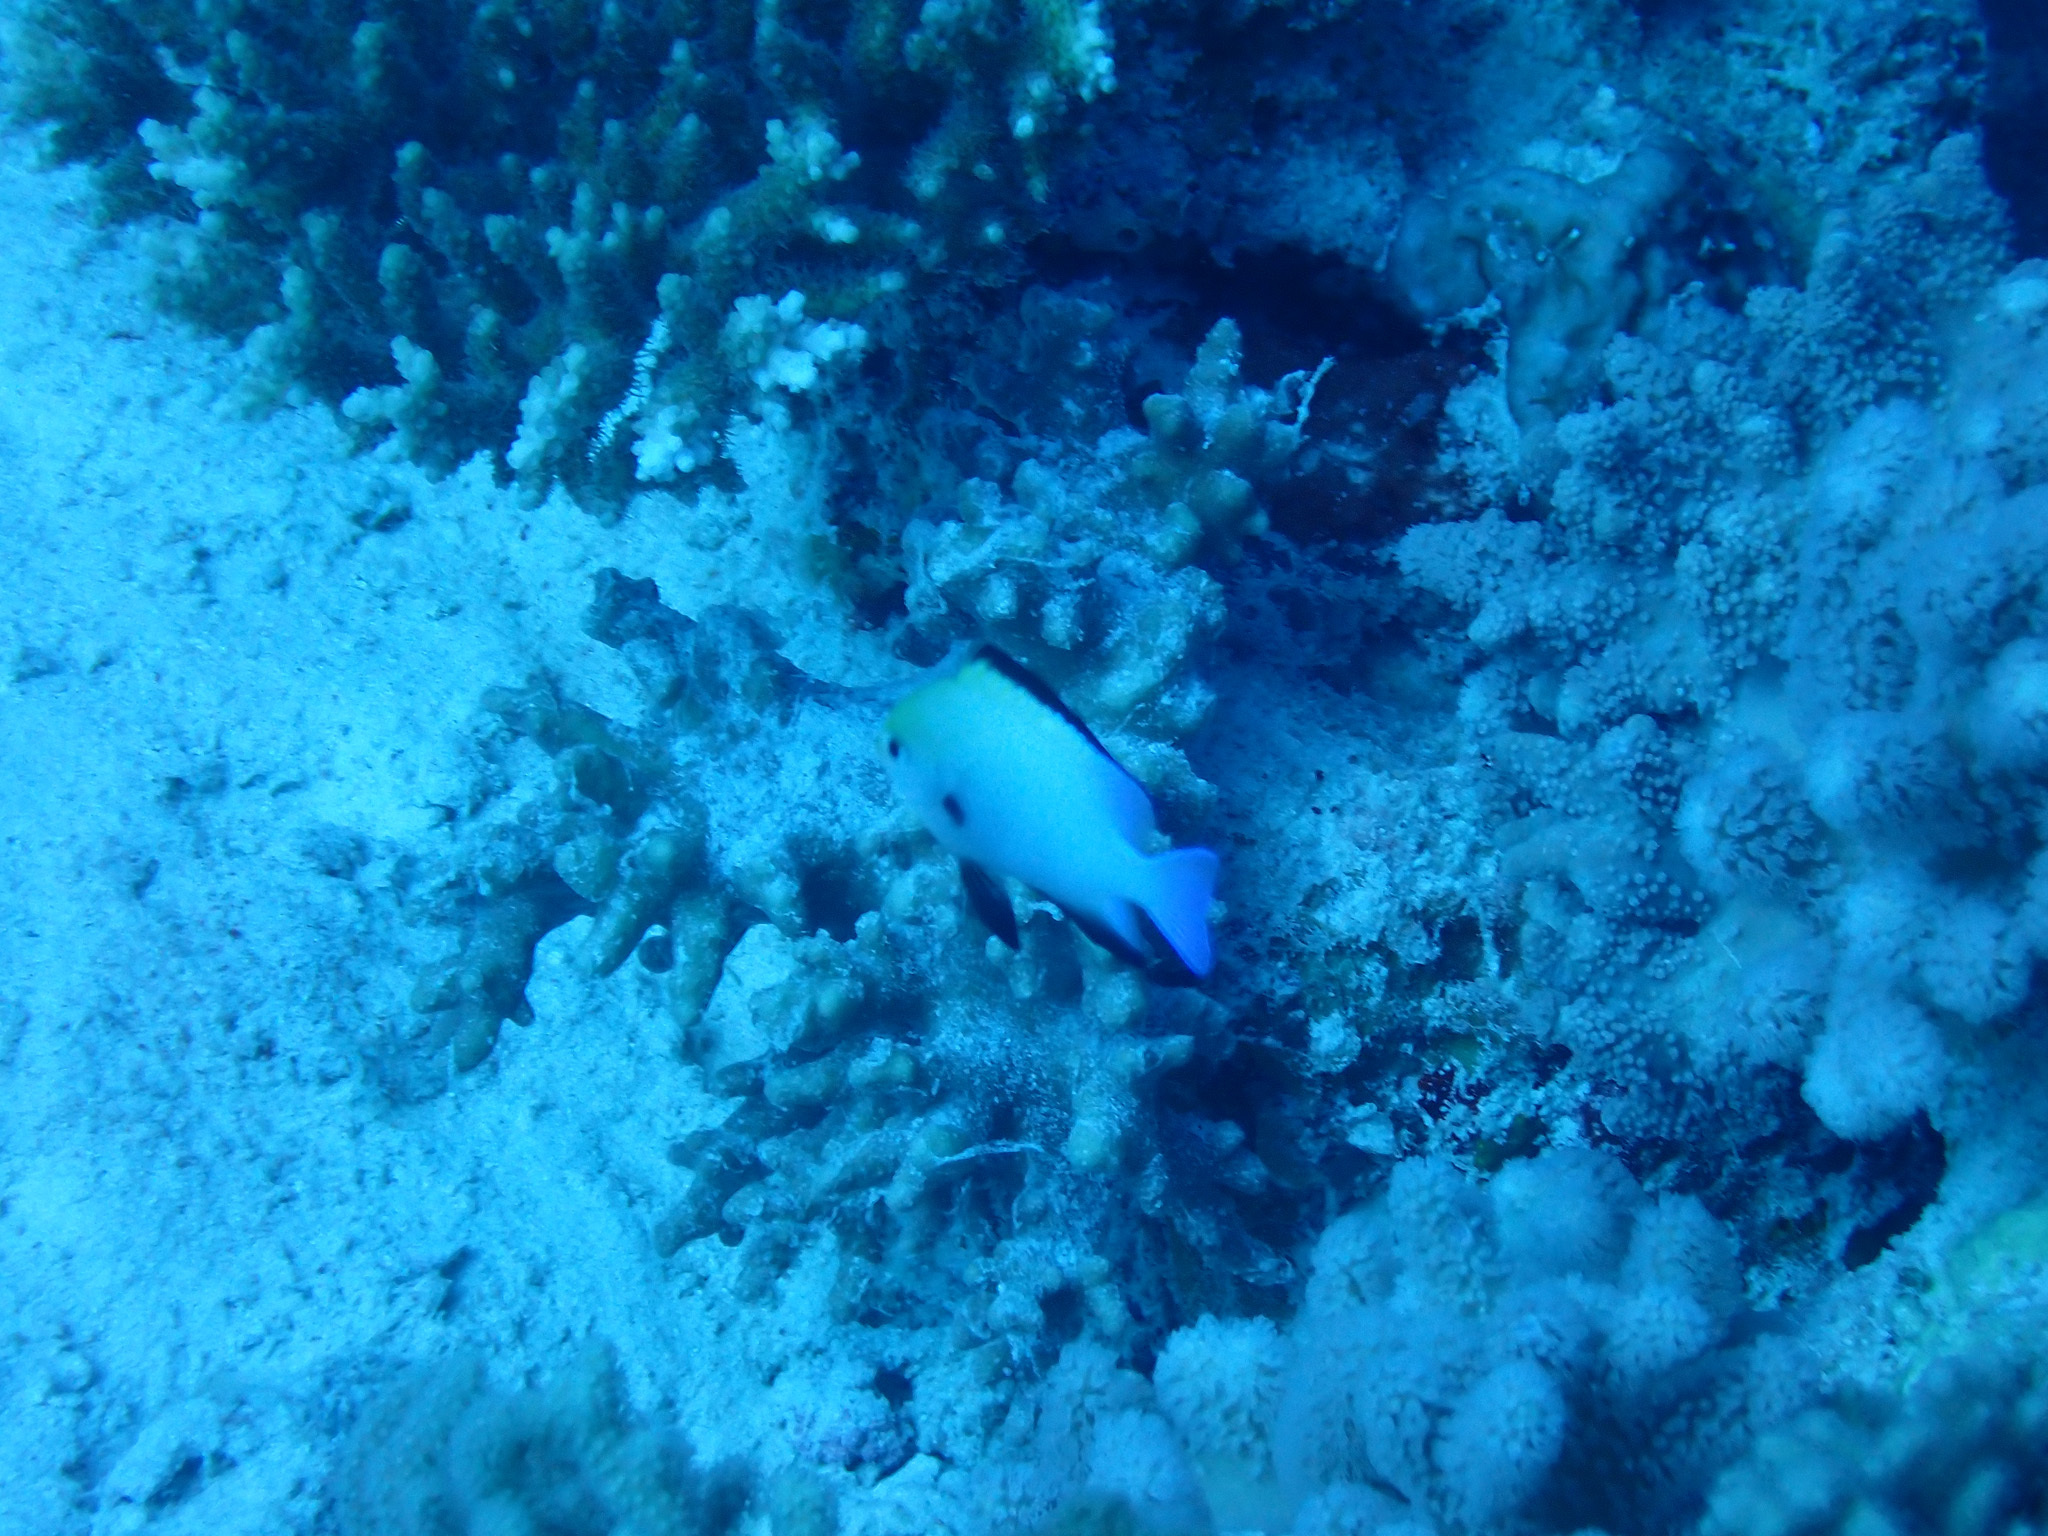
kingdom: Animalia
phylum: Chordata
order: Perciformes
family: Pomacentridae
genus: Dascyllus
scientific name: Dascyllus marginatus
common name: Red sea dascyllus
